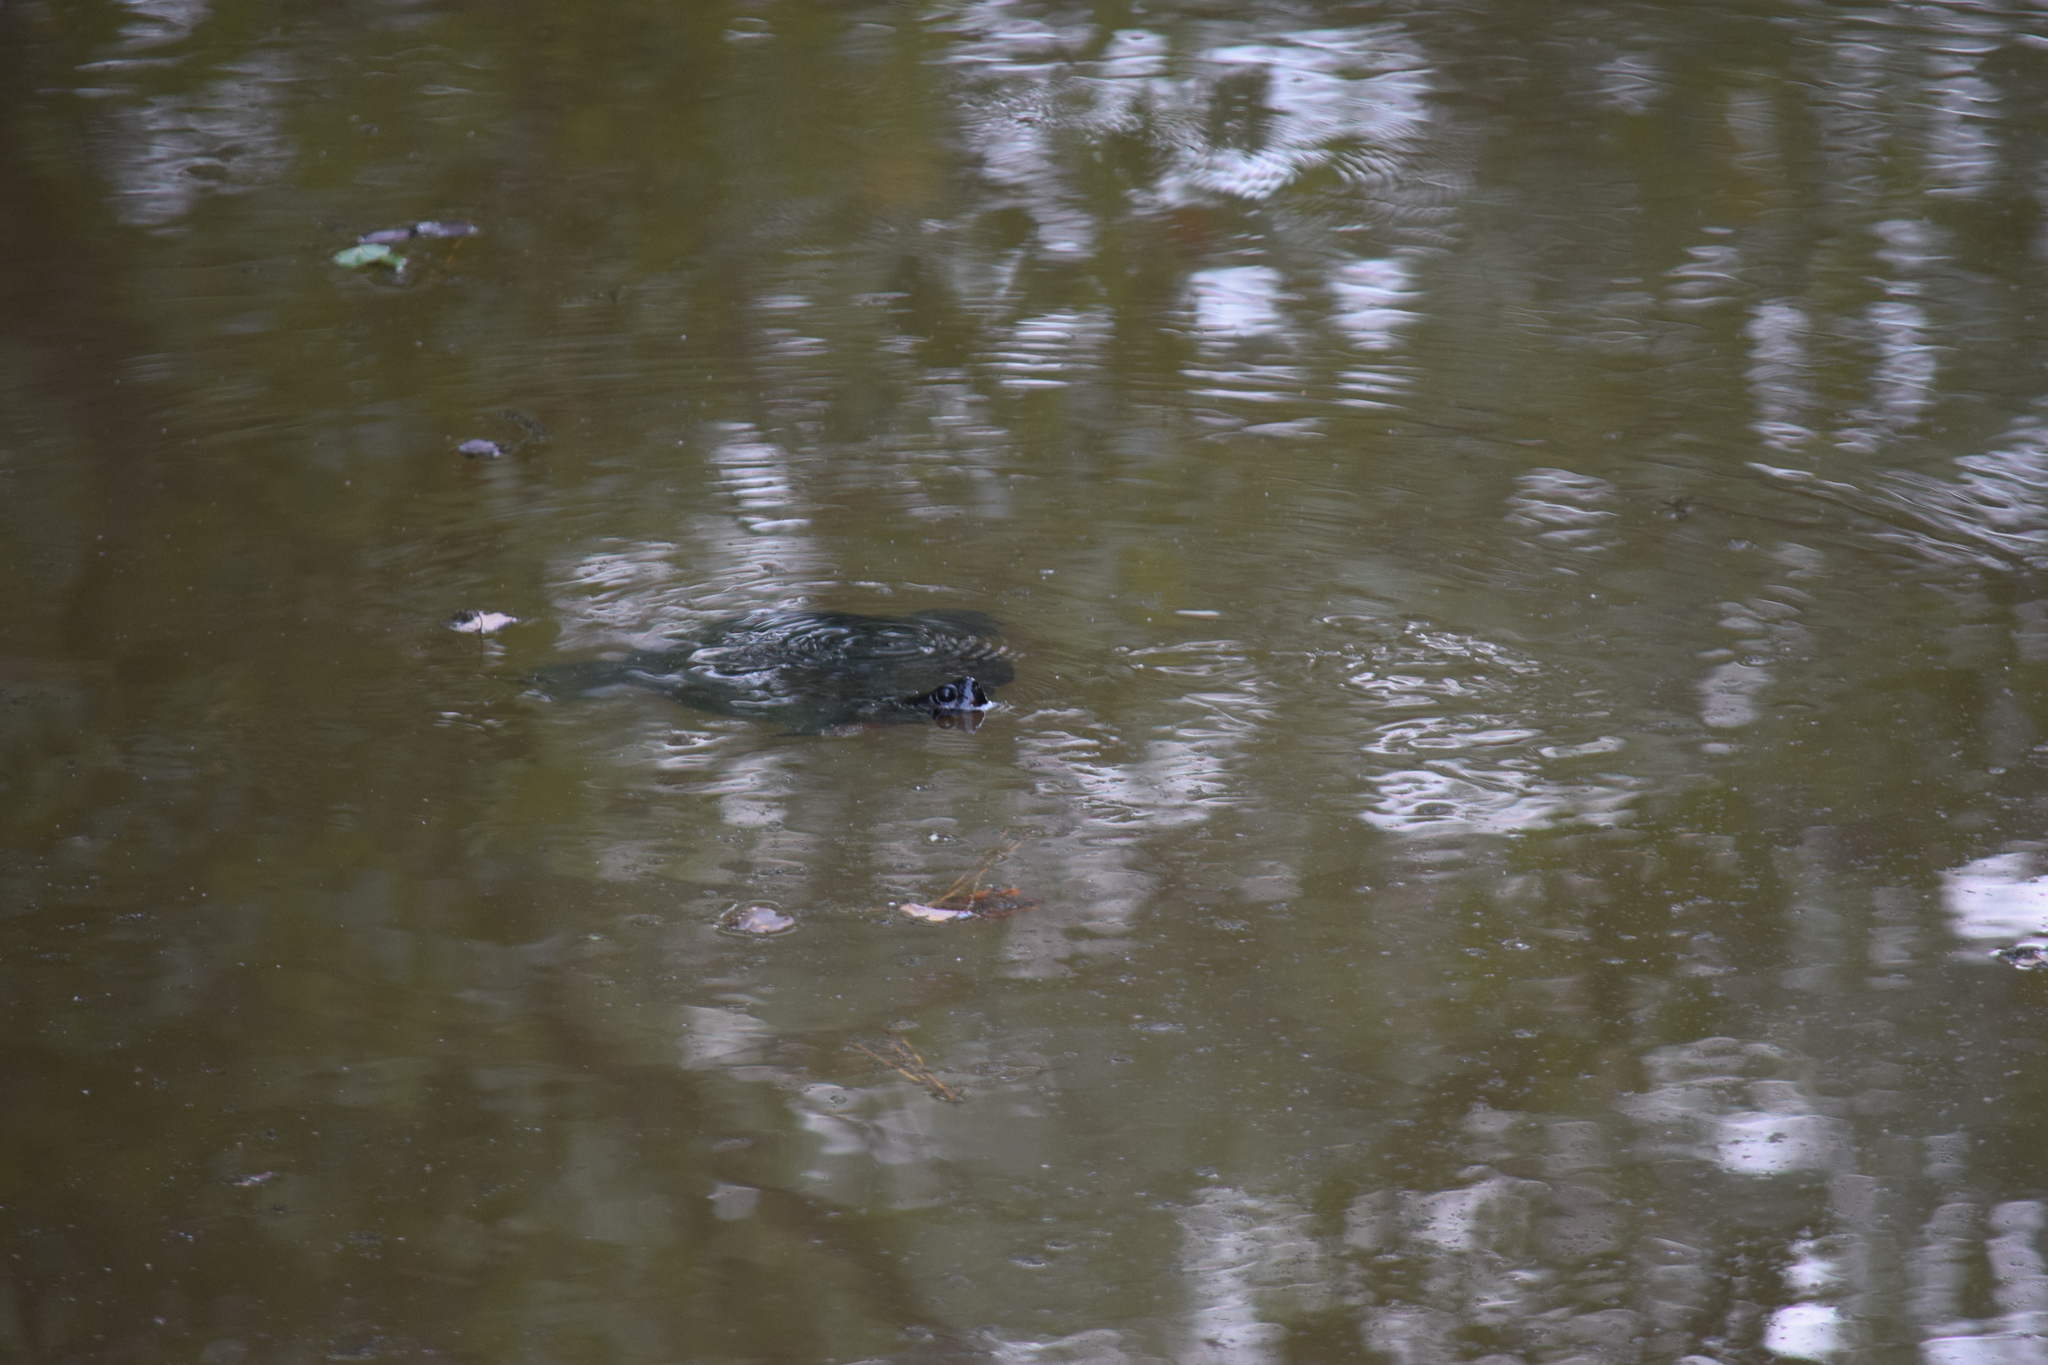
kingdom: Animalia
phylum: Chordata
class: Testudines
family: Emydidae
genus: Pseudemys
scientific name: Pseudemys rubriventris
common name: American red-bellied turtle
